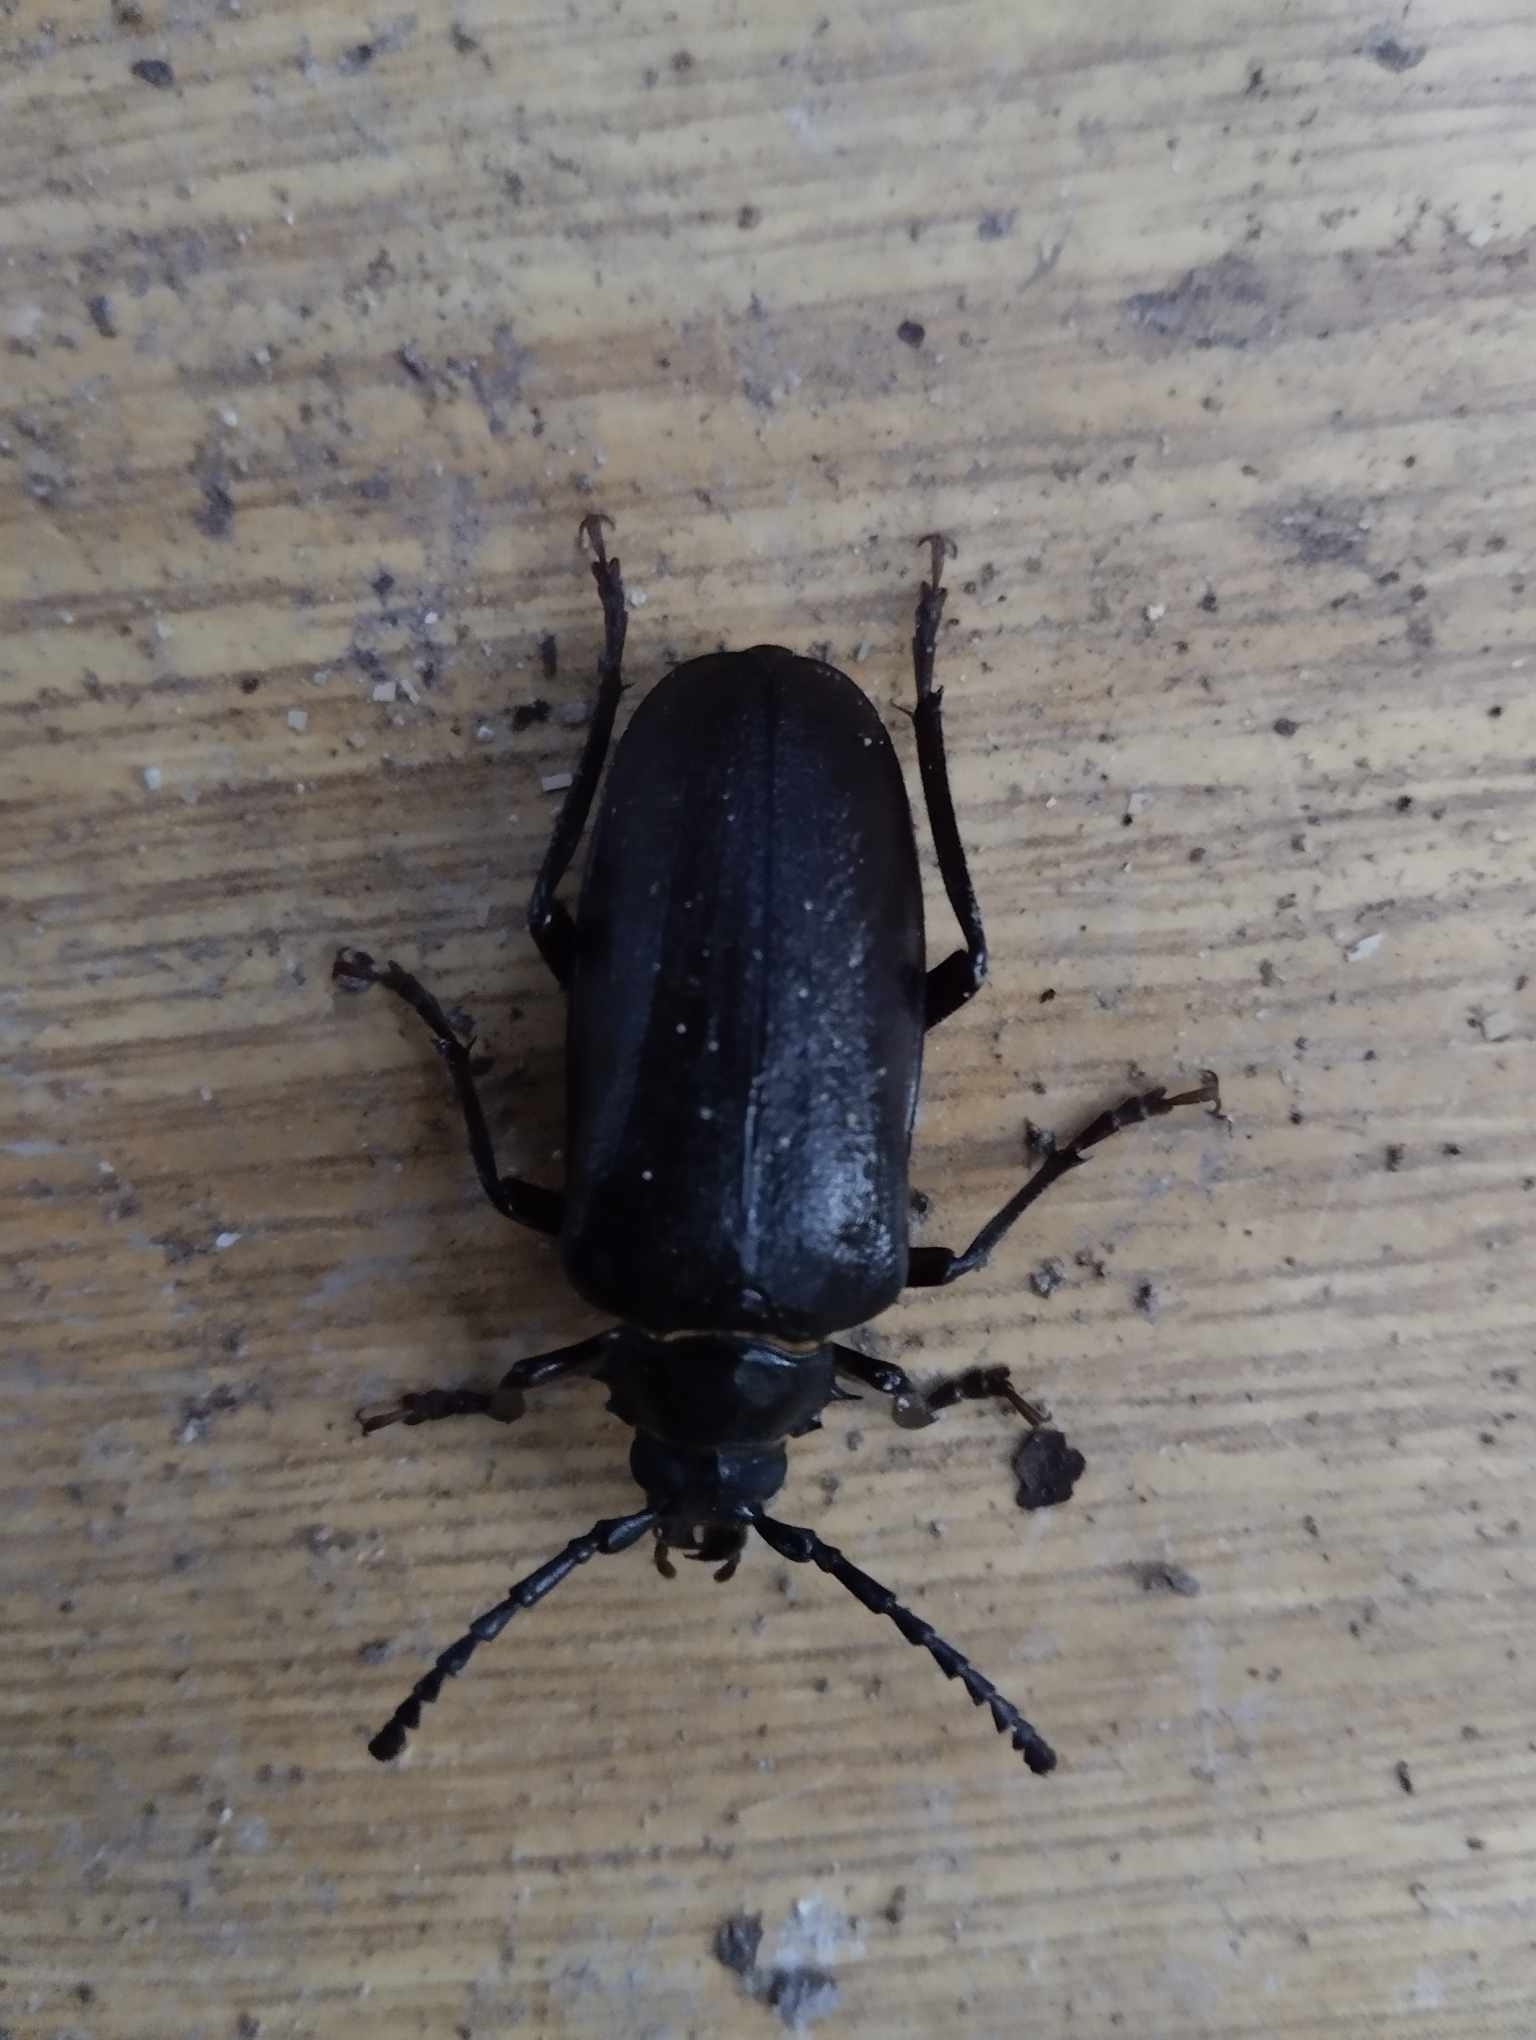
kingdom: Animalia
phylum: Arthropoda
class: Insecta
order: Coleoptera
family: Cerambycidae
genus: Prionus
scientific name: Prionus coriarius
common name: Tanner beetle
